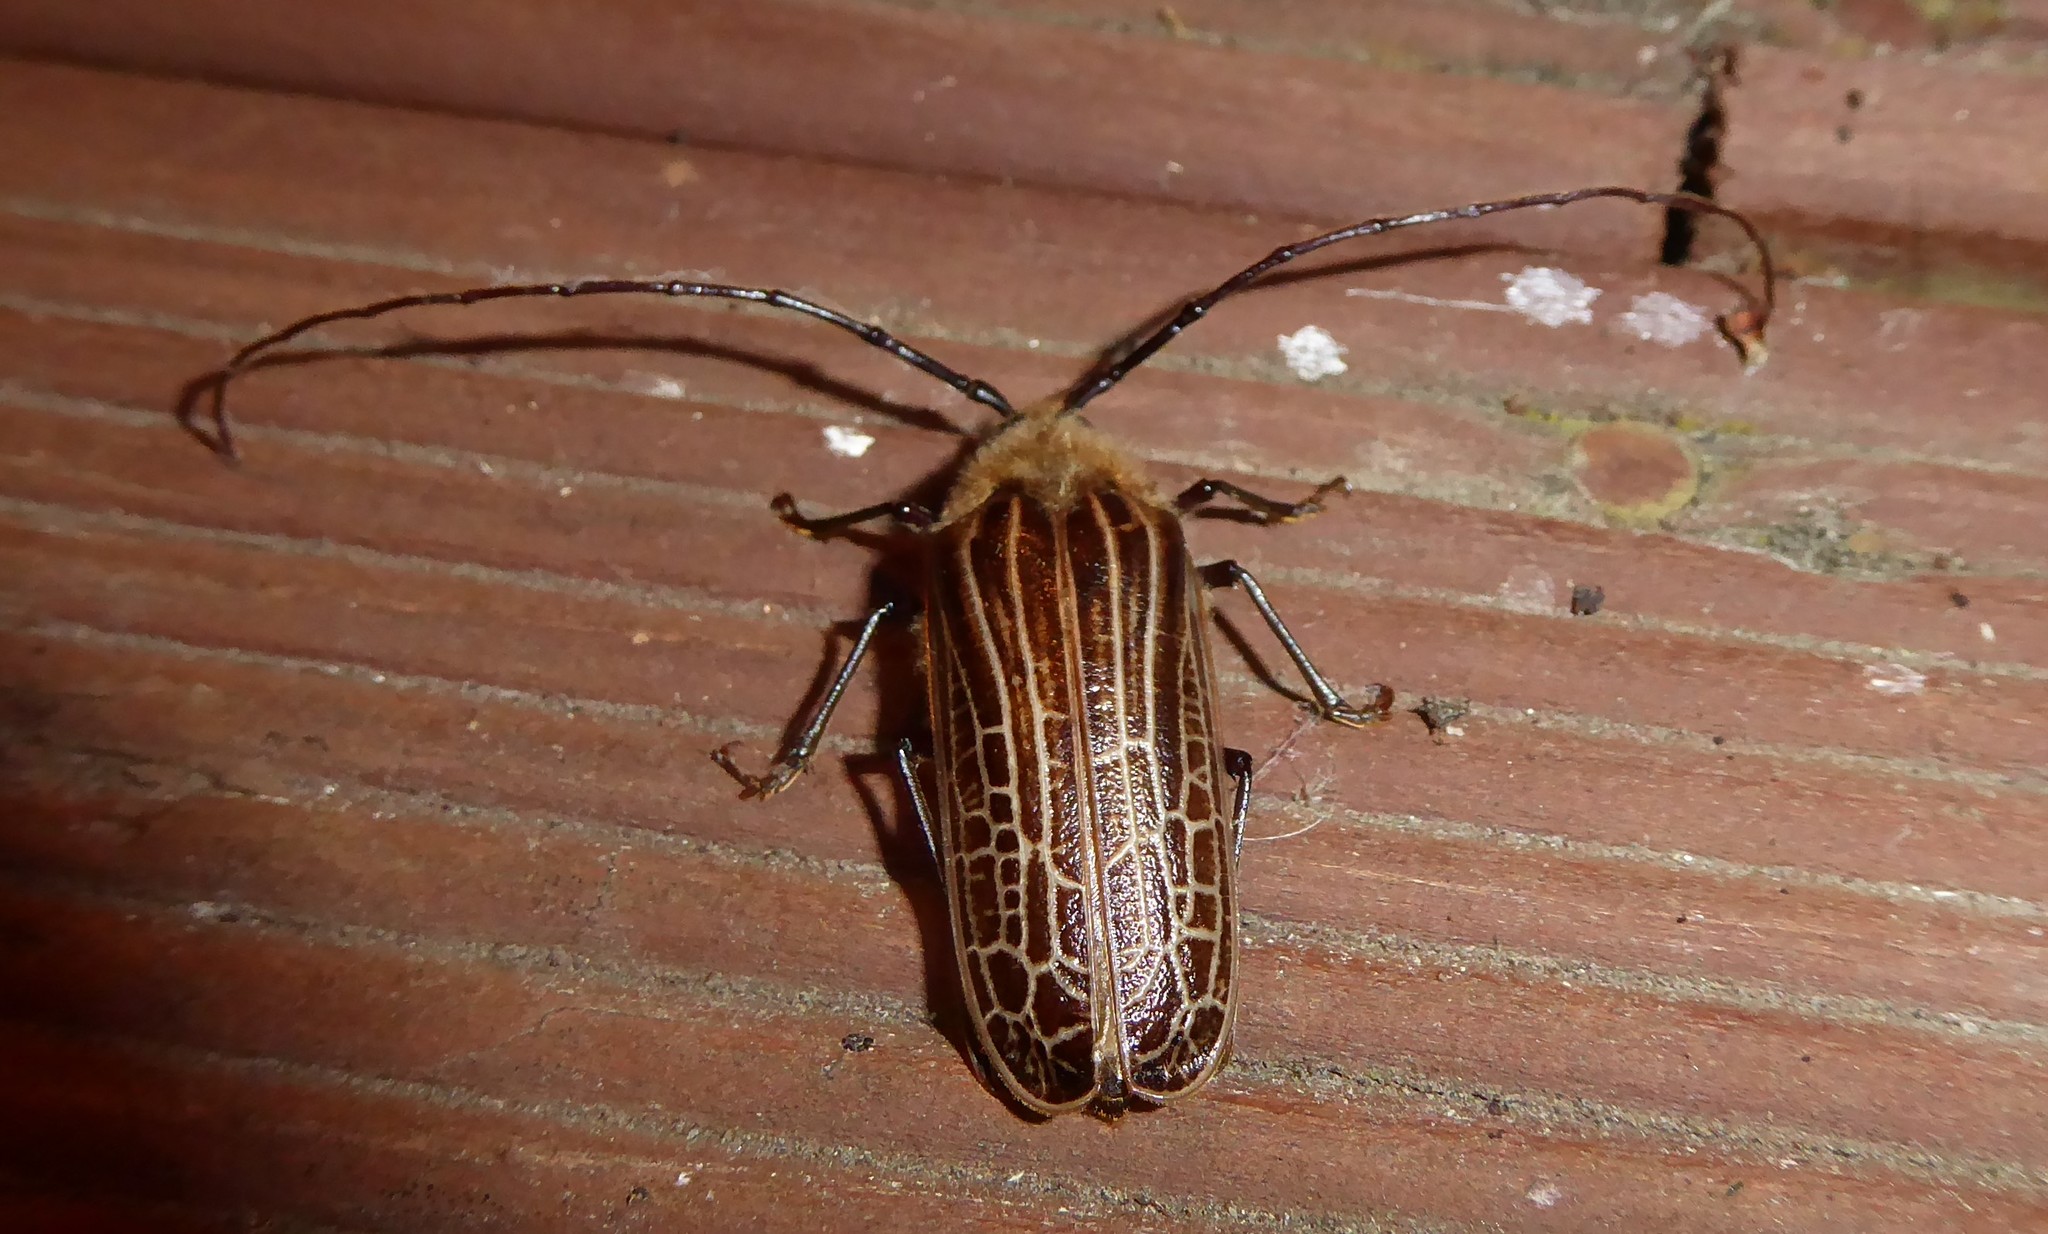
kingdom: Animalia
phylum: Arthropoda
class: Insecta
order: Coleoptera
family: Cerambycidae
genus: Prionoplus
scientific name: Prionoplus reticularis
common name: Huhu beetle
